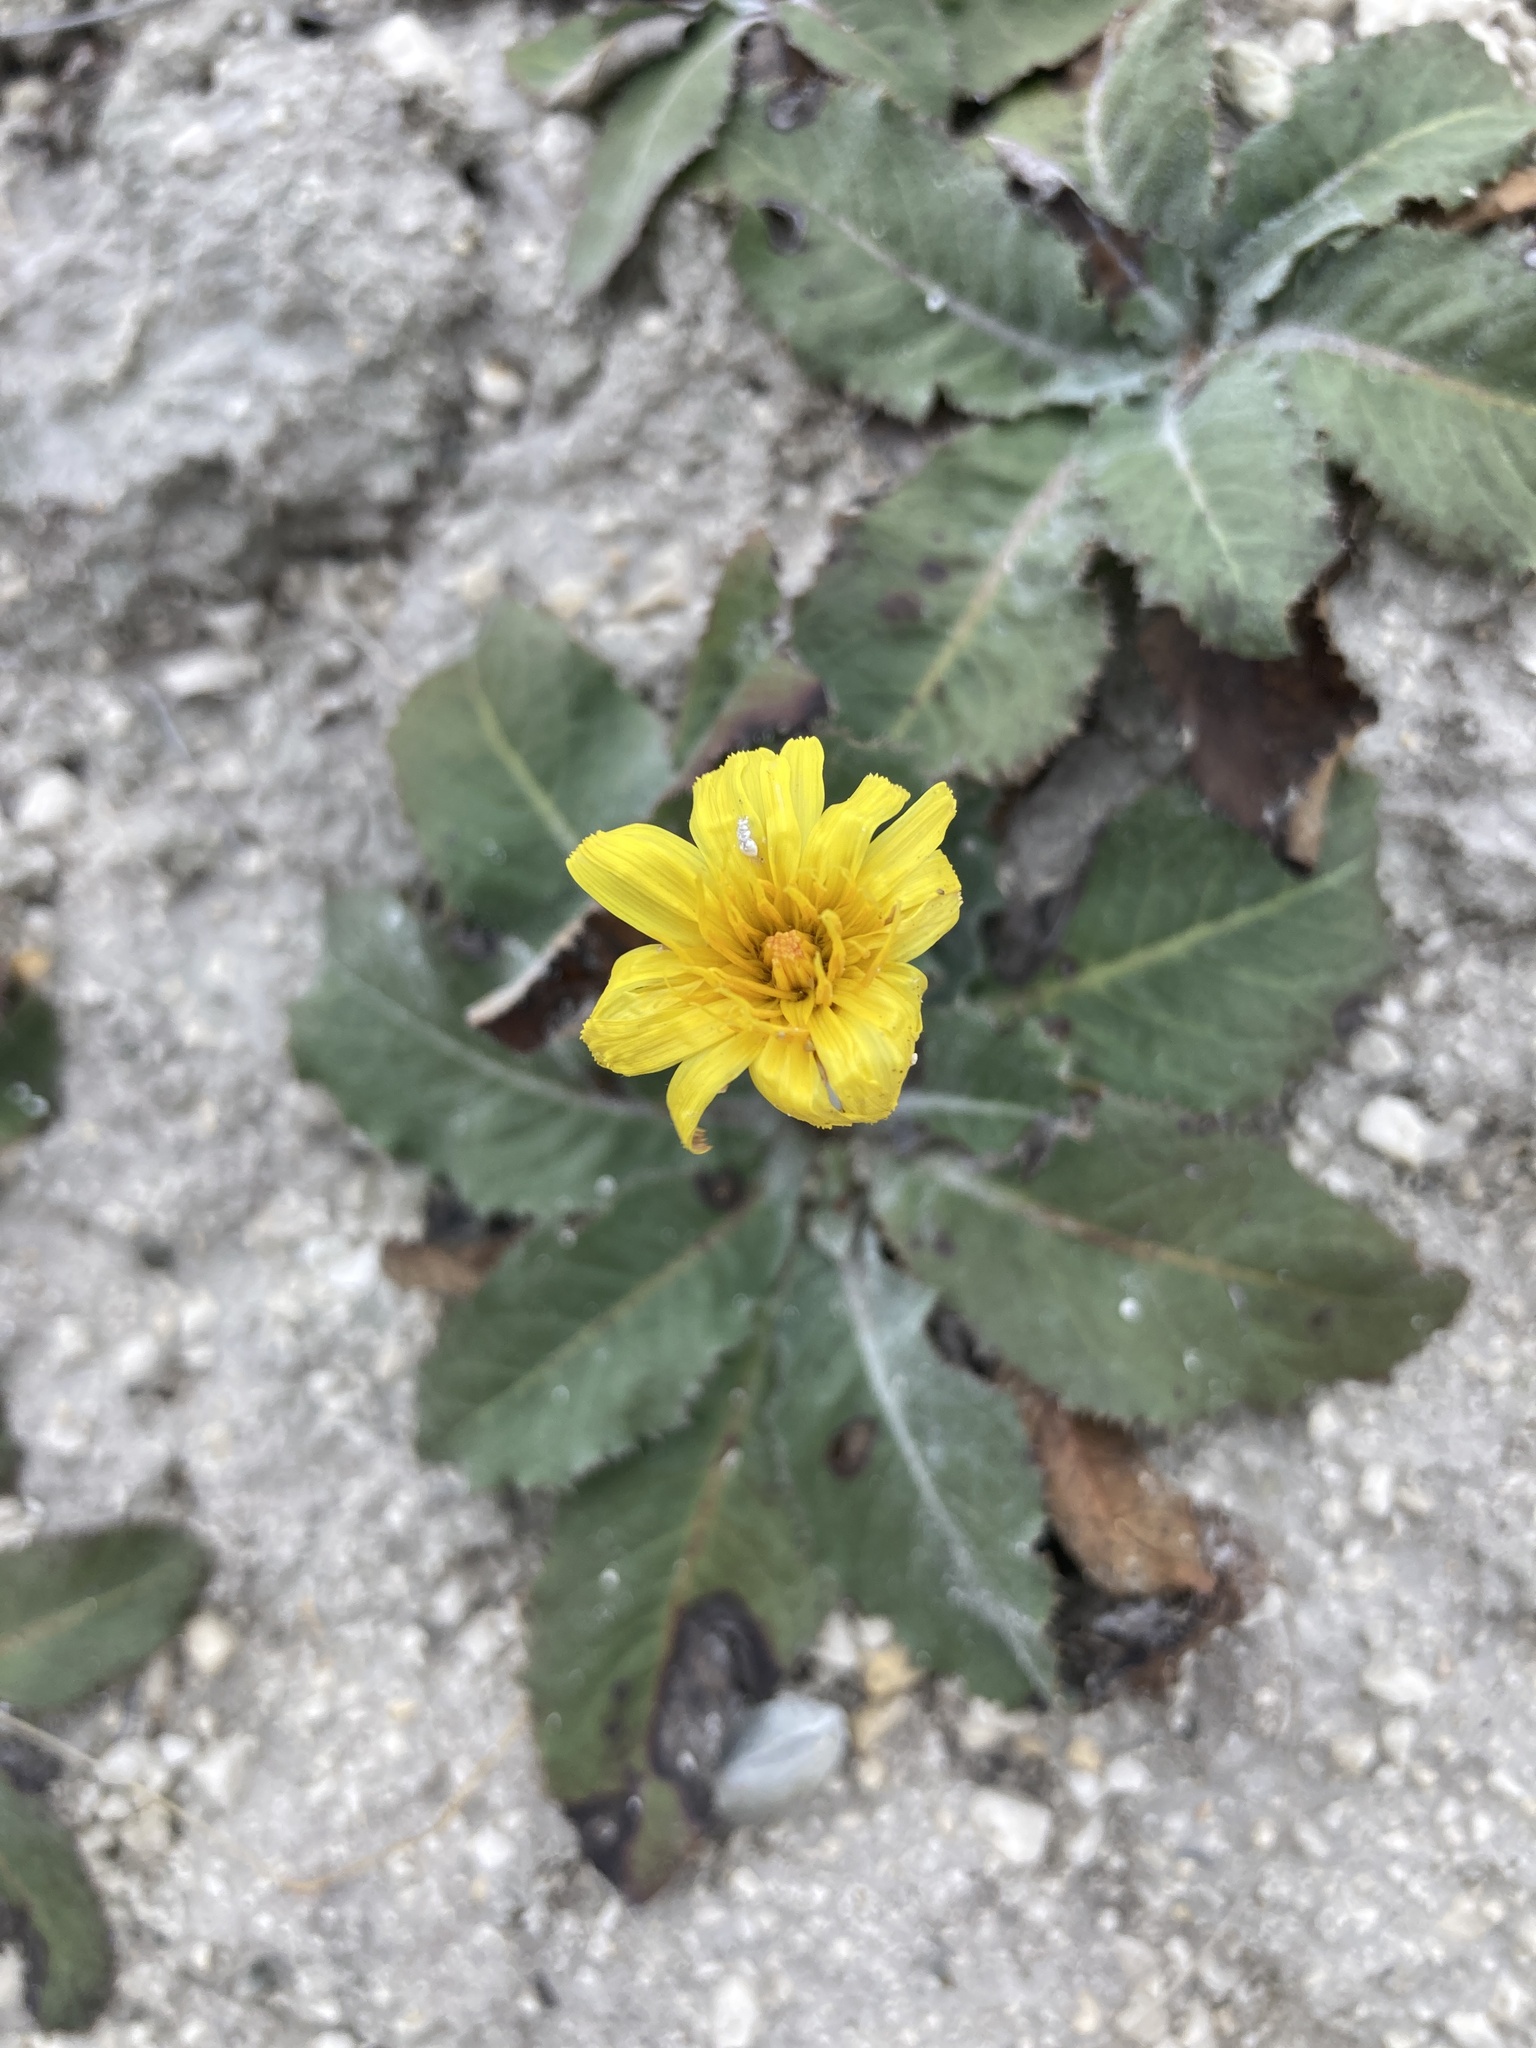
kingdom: Plantae
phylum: Tracheophyta
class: Magnoliopsida
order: Asterales
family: Asteraceae
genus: Taraxacum
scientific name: Taraxacum serotinum
